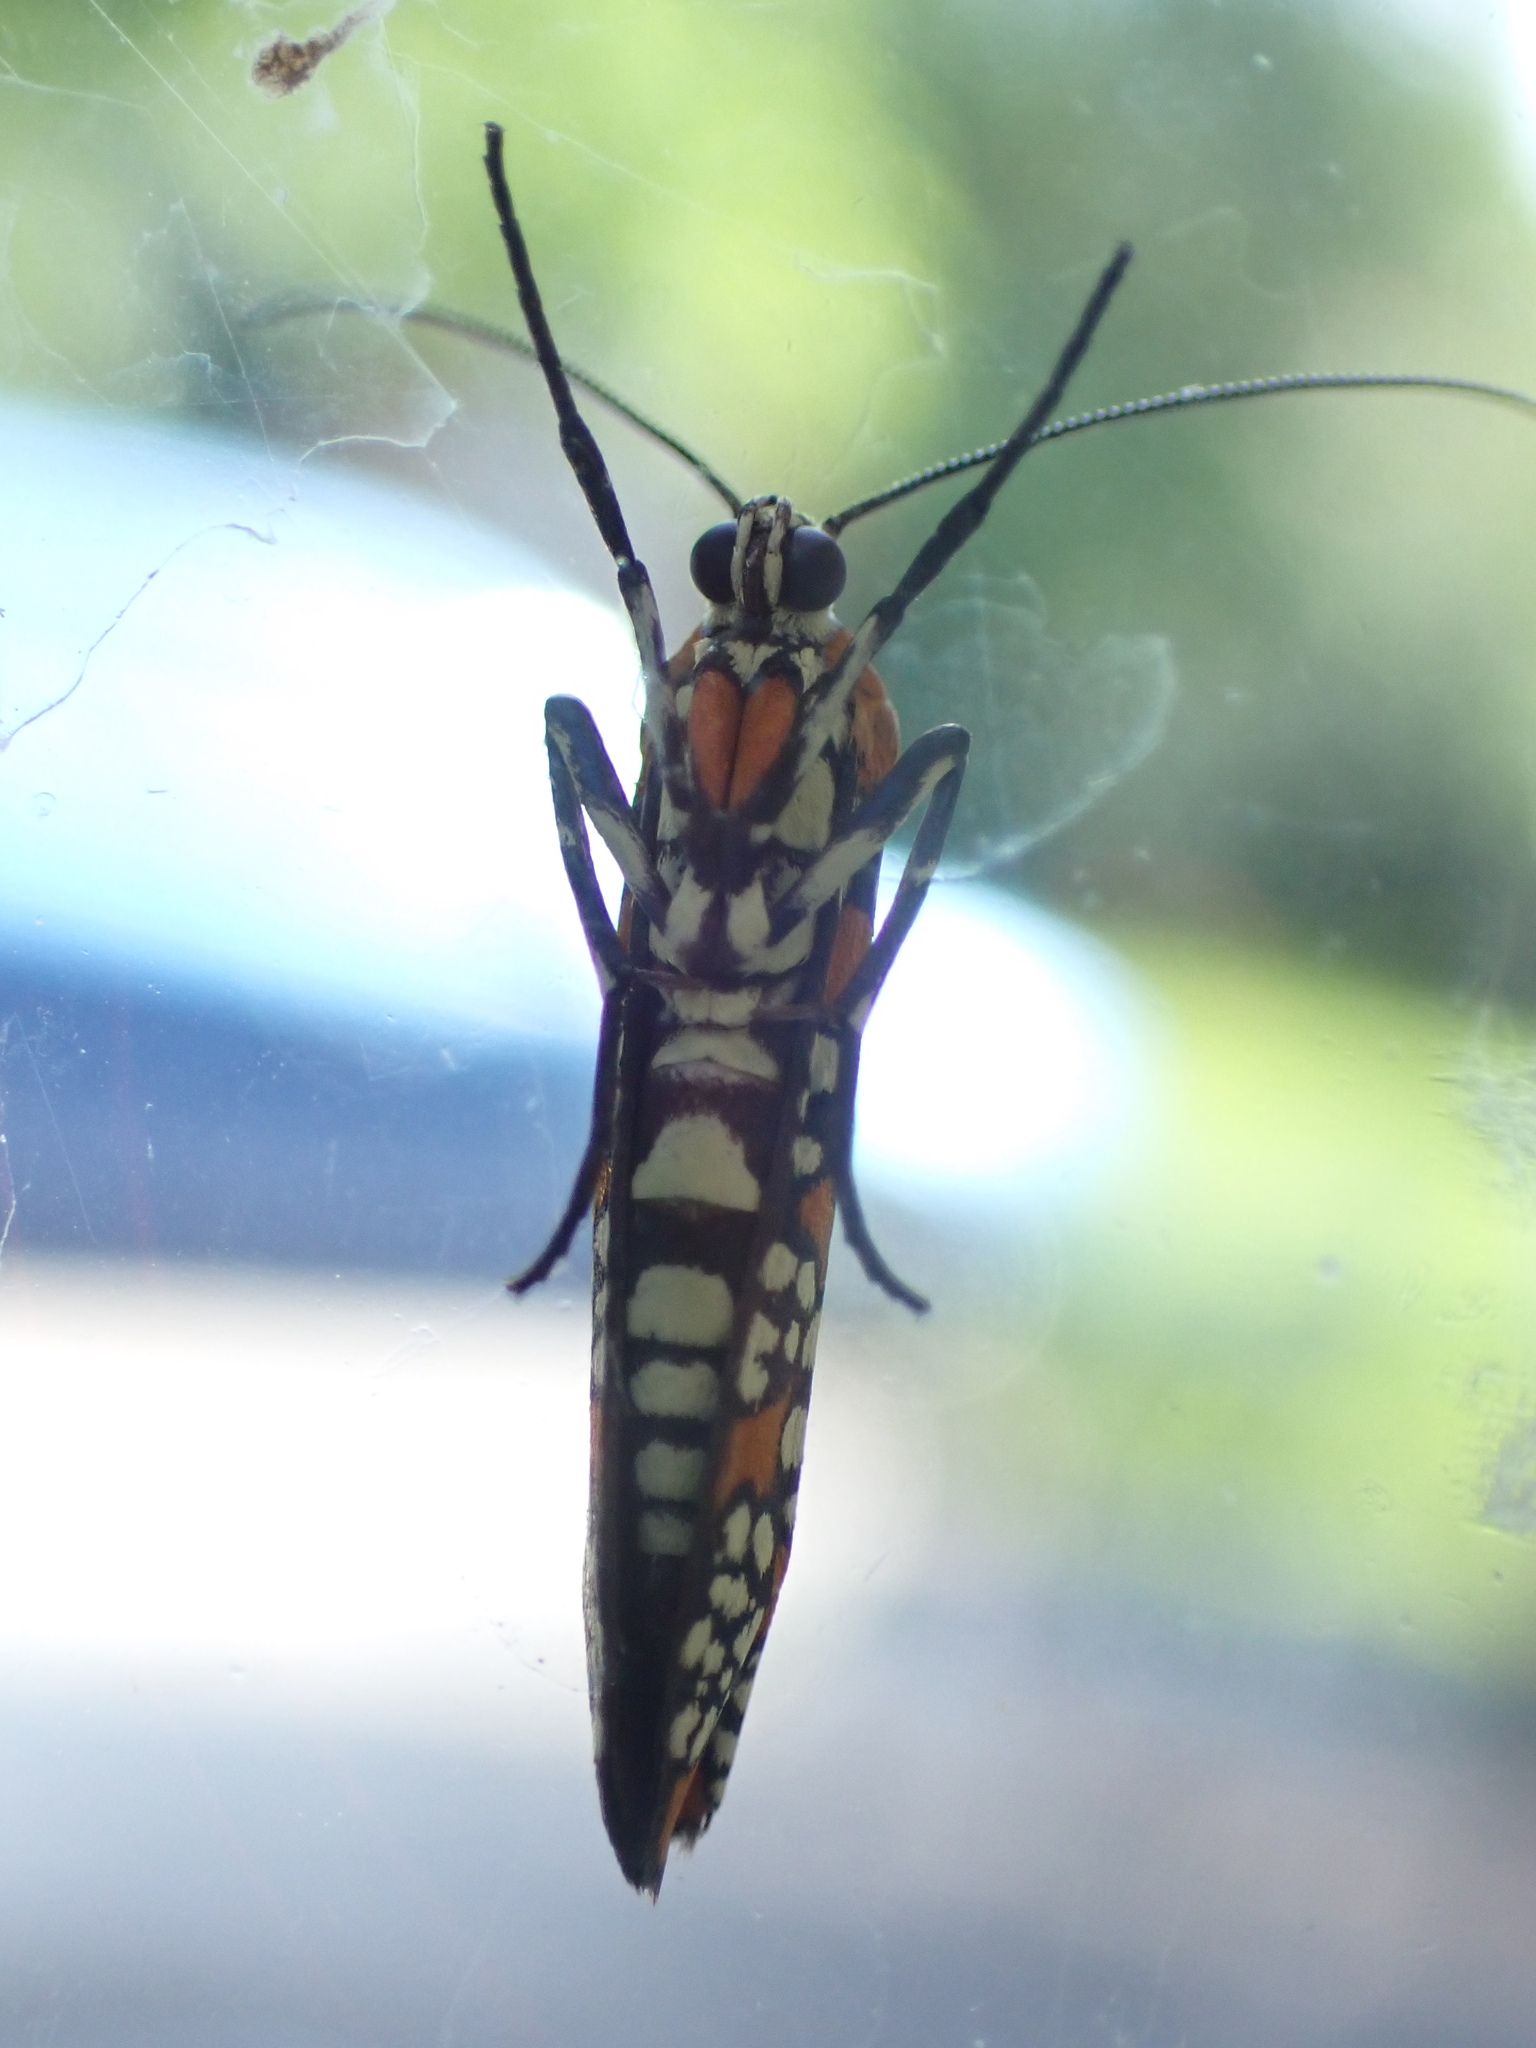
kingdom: Animalia
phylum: Arthropoda
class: Insecta
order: Lepidoptera
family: Attevidae
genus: Atteva
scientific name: Atteva punctella
